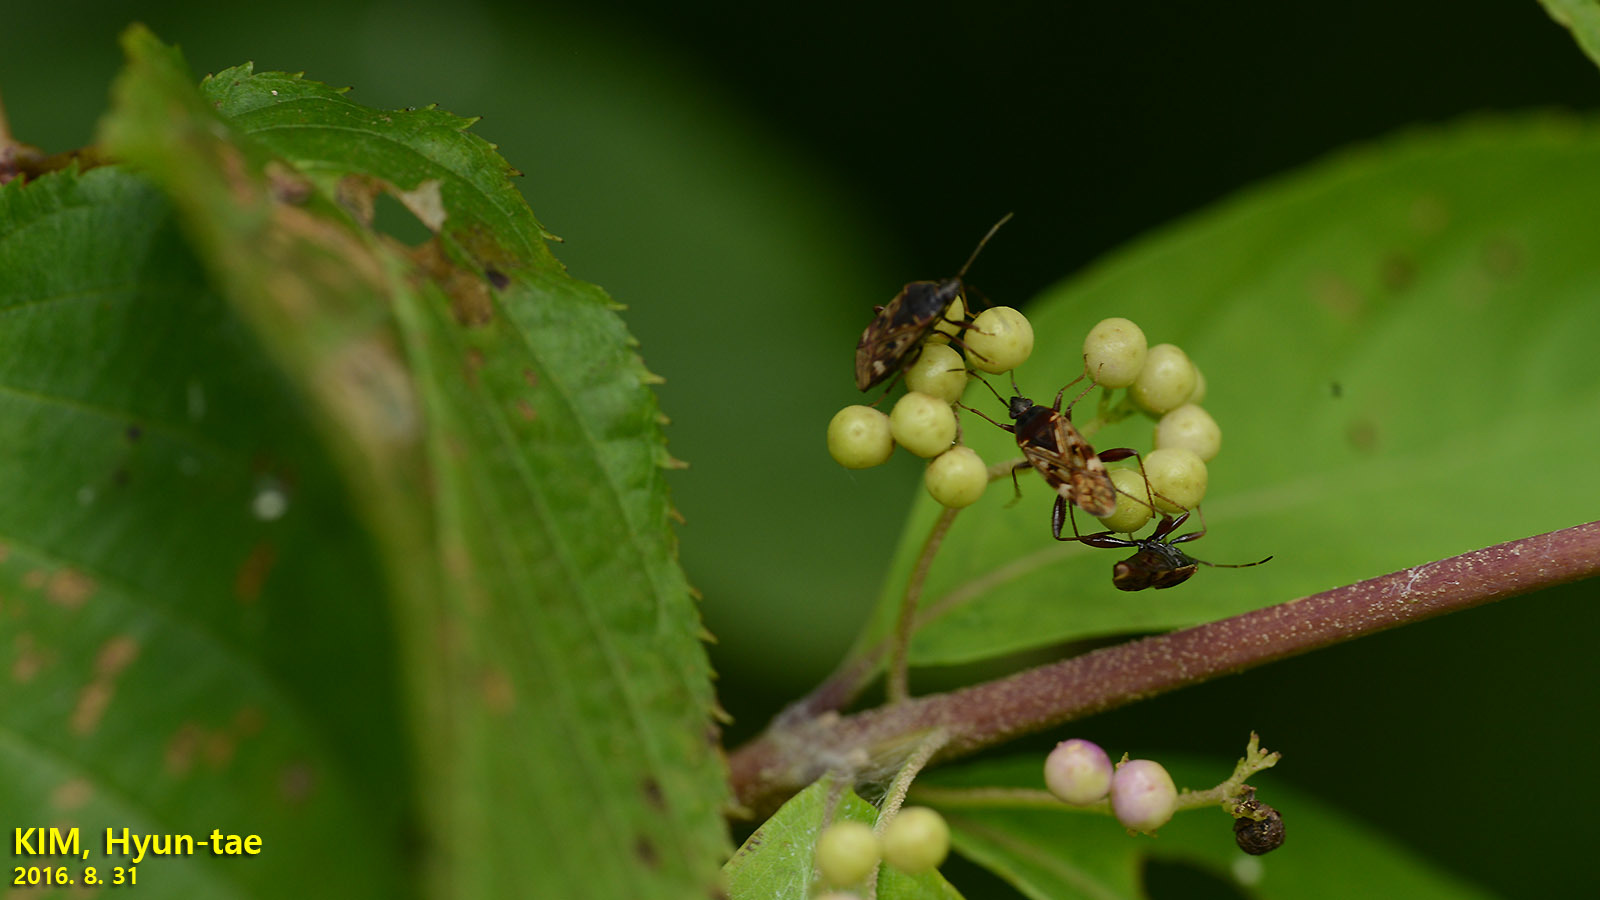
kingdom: Animalia
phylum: Arthropoda
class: Insecta
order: Hemiptera
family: Rhyparochromidae
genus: Neolethaeus
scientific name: Neolethaeus dallasi
